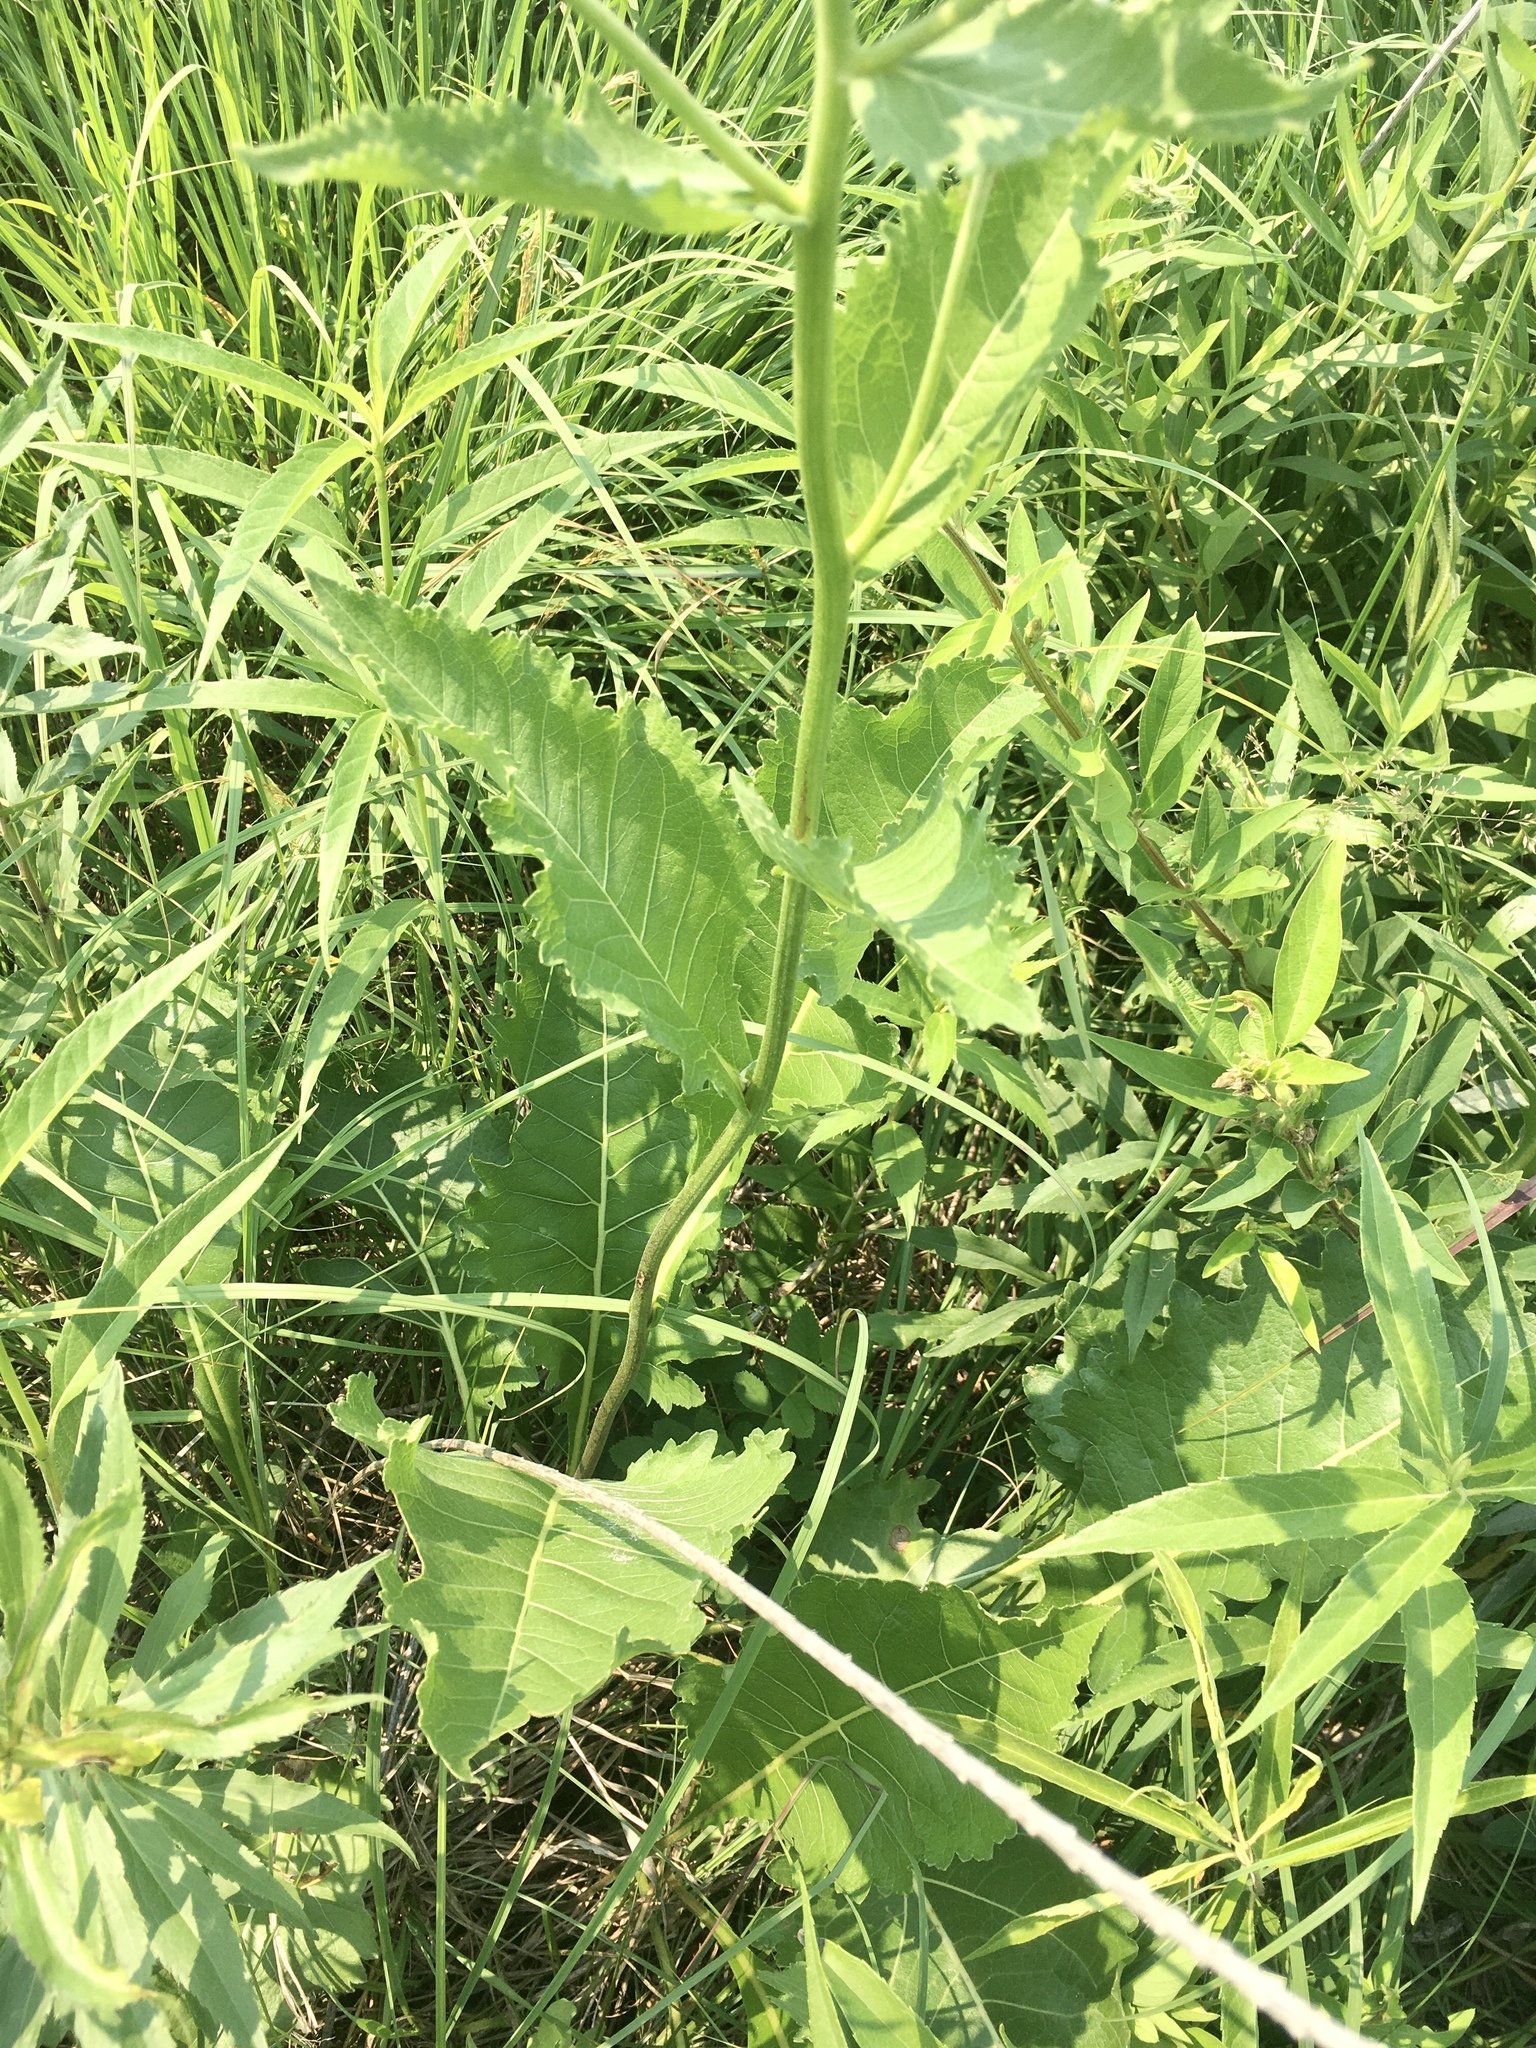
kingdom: Plantae
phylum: Tracheophyta
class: Magnoliopsida
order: Asterales
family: Asteraceae
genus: Parthenium
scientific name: Parthenium integrifolium
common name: American feverfew
